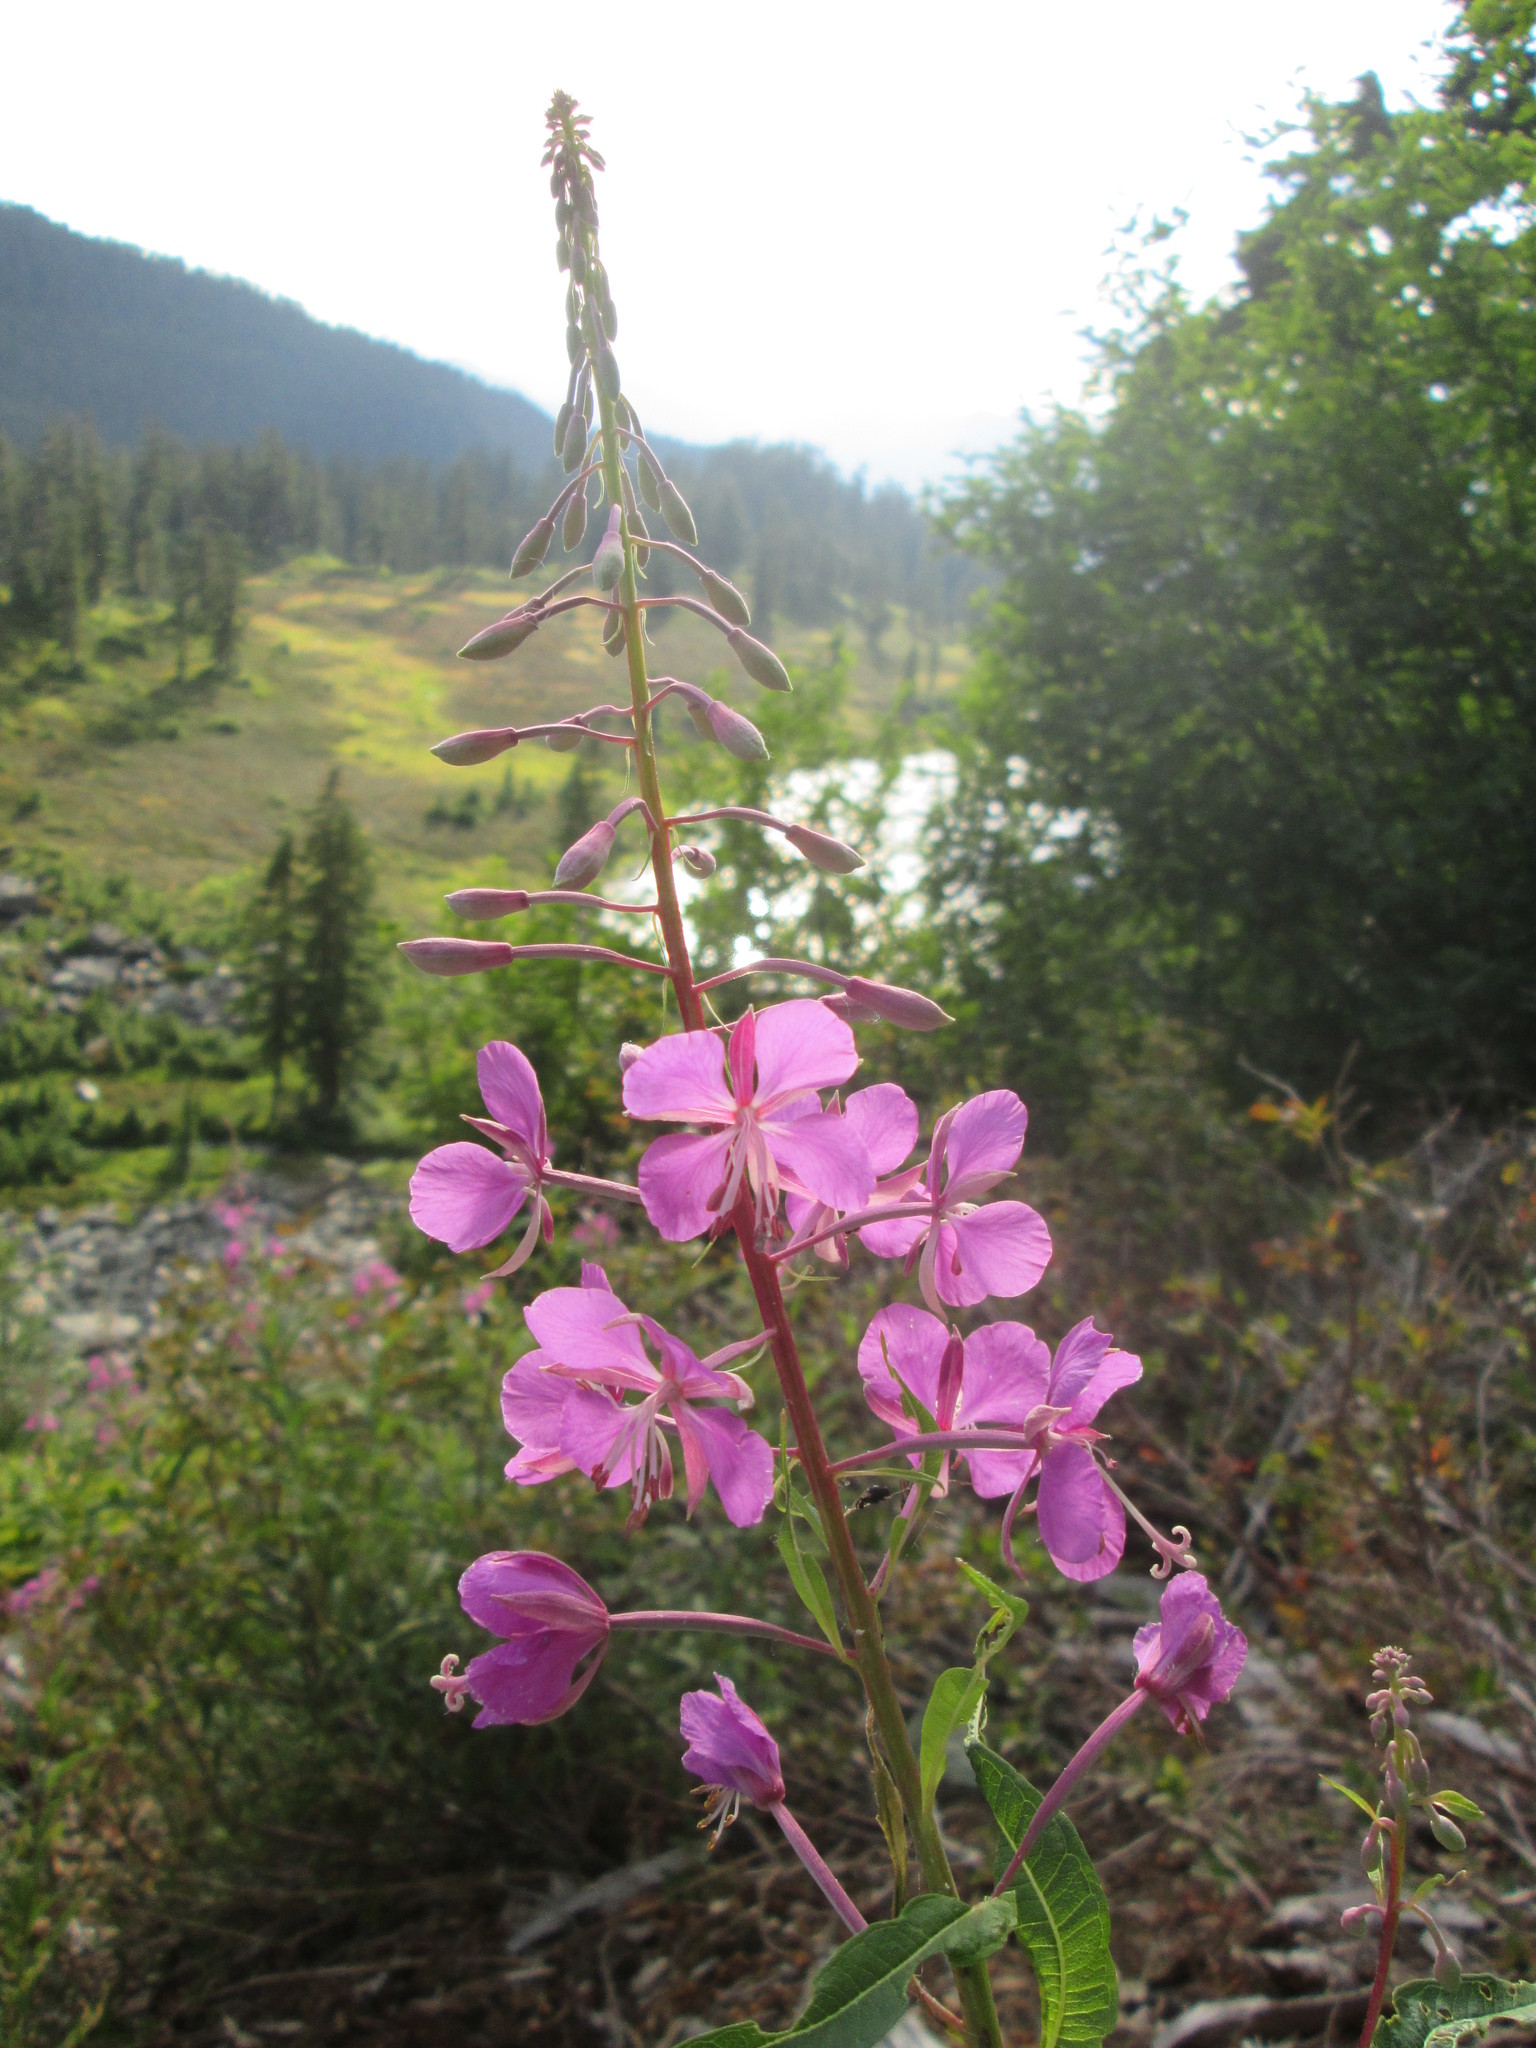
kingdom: Plantae
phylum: Tracheophyta
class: Magnoliopsida
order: Myrtales
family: Onagraceae
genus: Chamaenerion
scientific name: Chamaenerion angustifolium
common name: Fireweed
